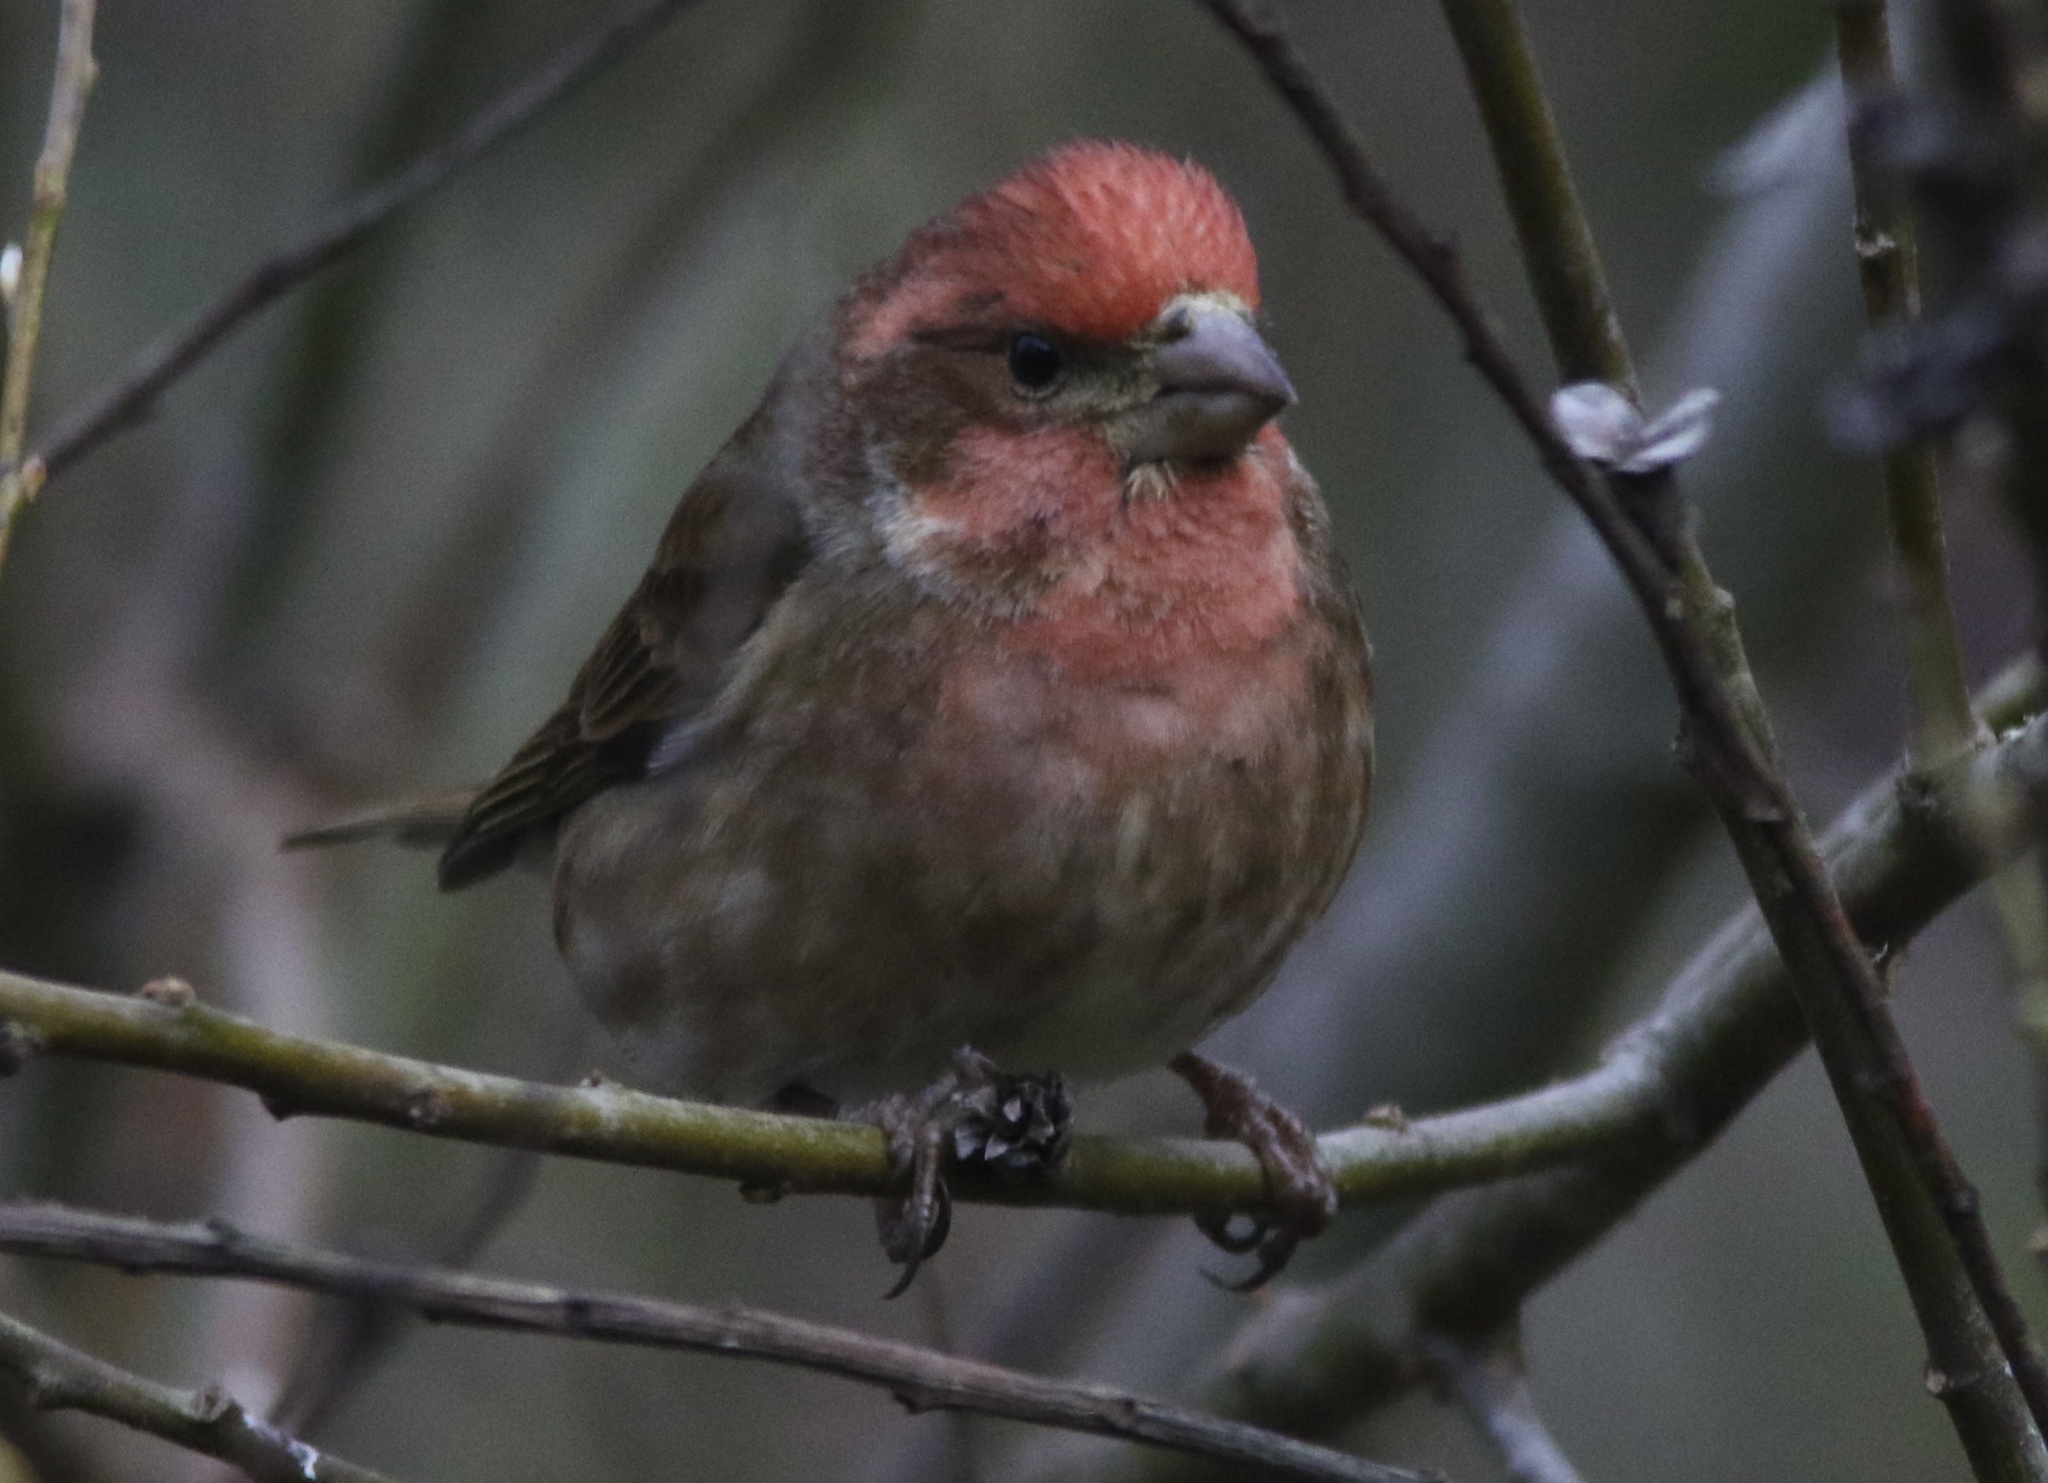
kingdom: Animalia
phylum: Chordata
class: Aves
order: Passeriformes
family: Fringillidae
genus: Haemorhous
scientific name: Haemorhous purpureus
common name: Purple finch
